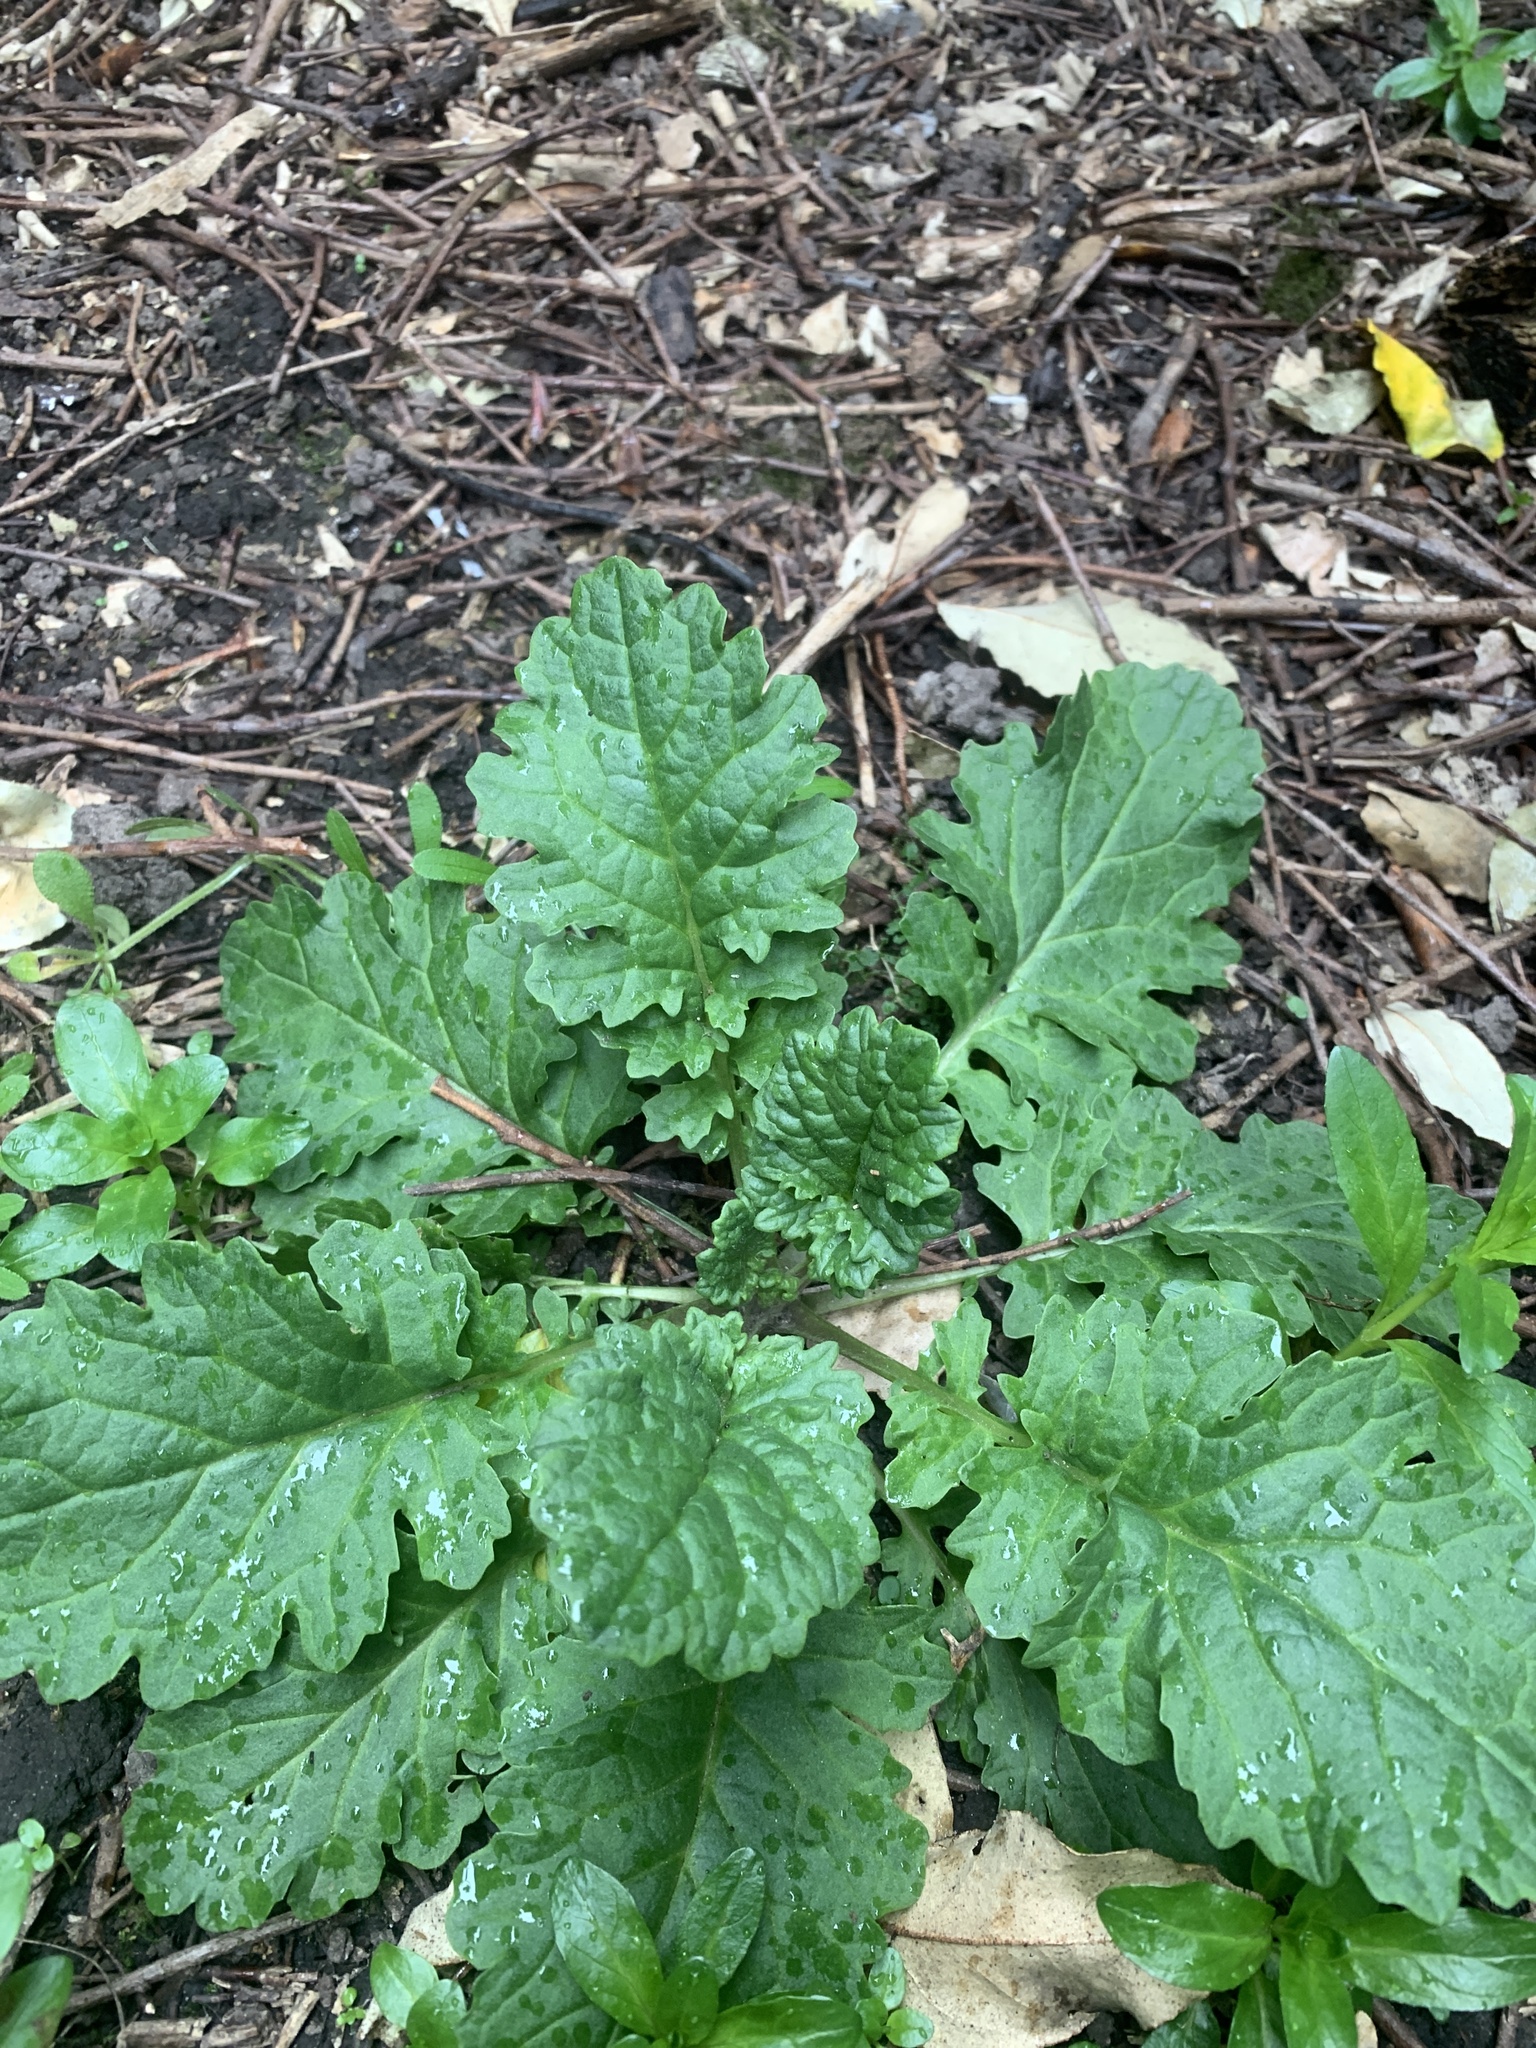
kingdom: Plantae
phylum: Tracheophyta
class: Magnoliopsida
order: Asterales
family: Asteraceae
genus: Jacobaea
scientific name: Jacobaea vulgaris
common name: Stinking willie
